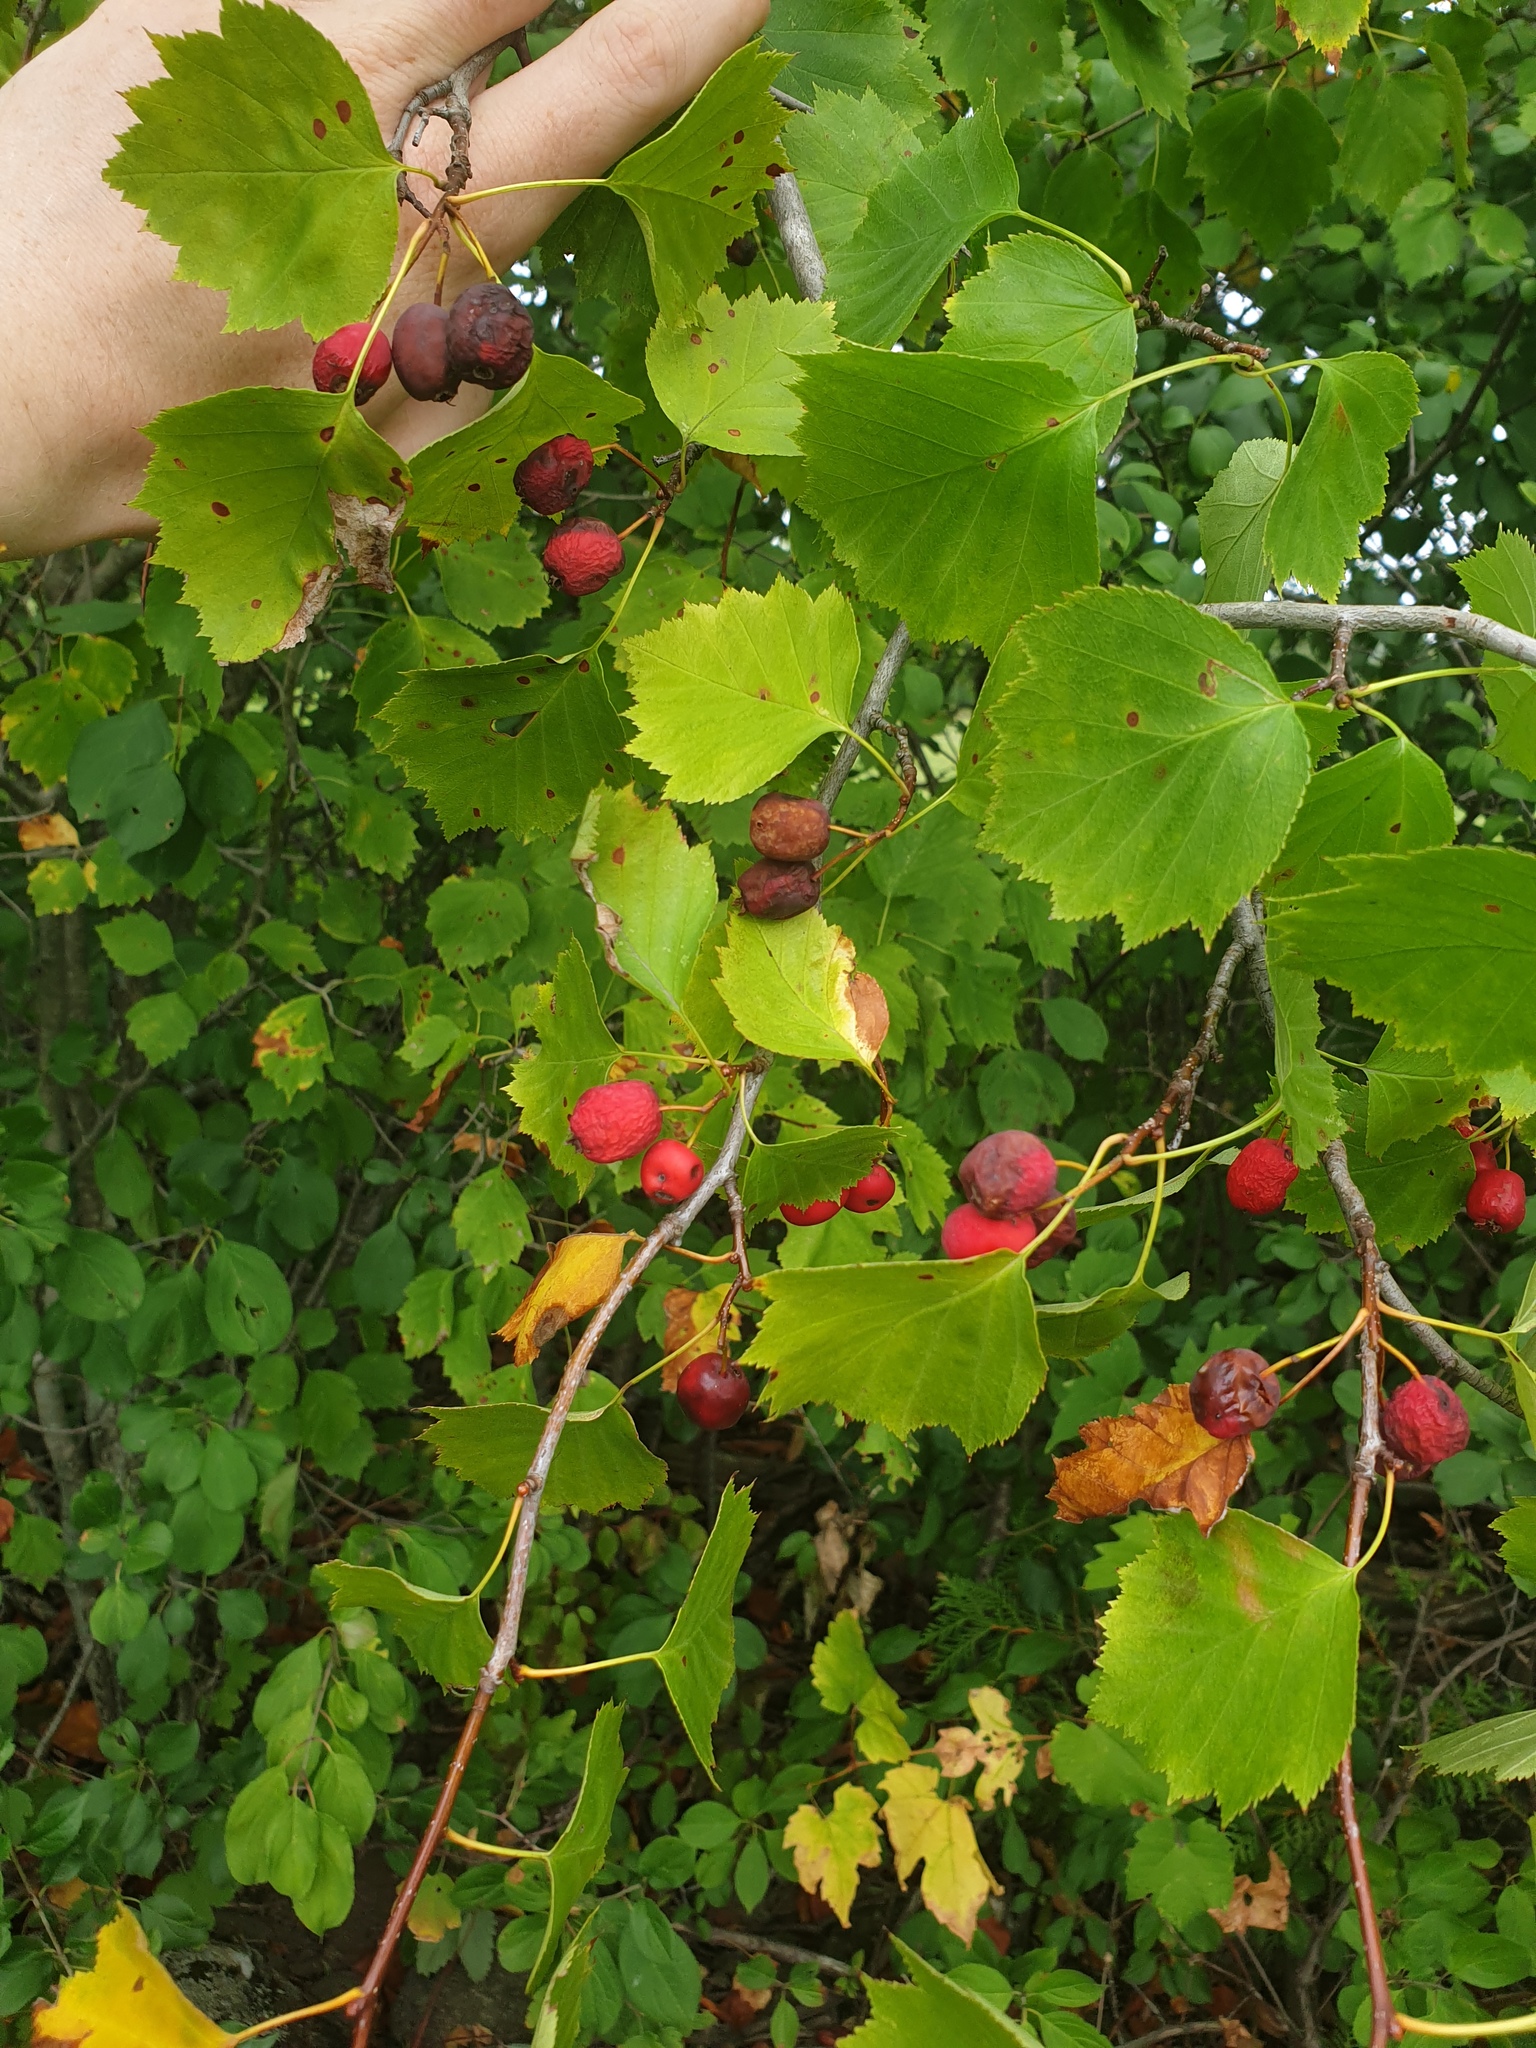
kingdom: Plantae
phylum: Tracheophyta
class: Magnoliopsida
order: Rosales
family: Rosaceae
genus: Crataegus
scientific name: Crataegus macrosperma
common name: Variable hawthorn
